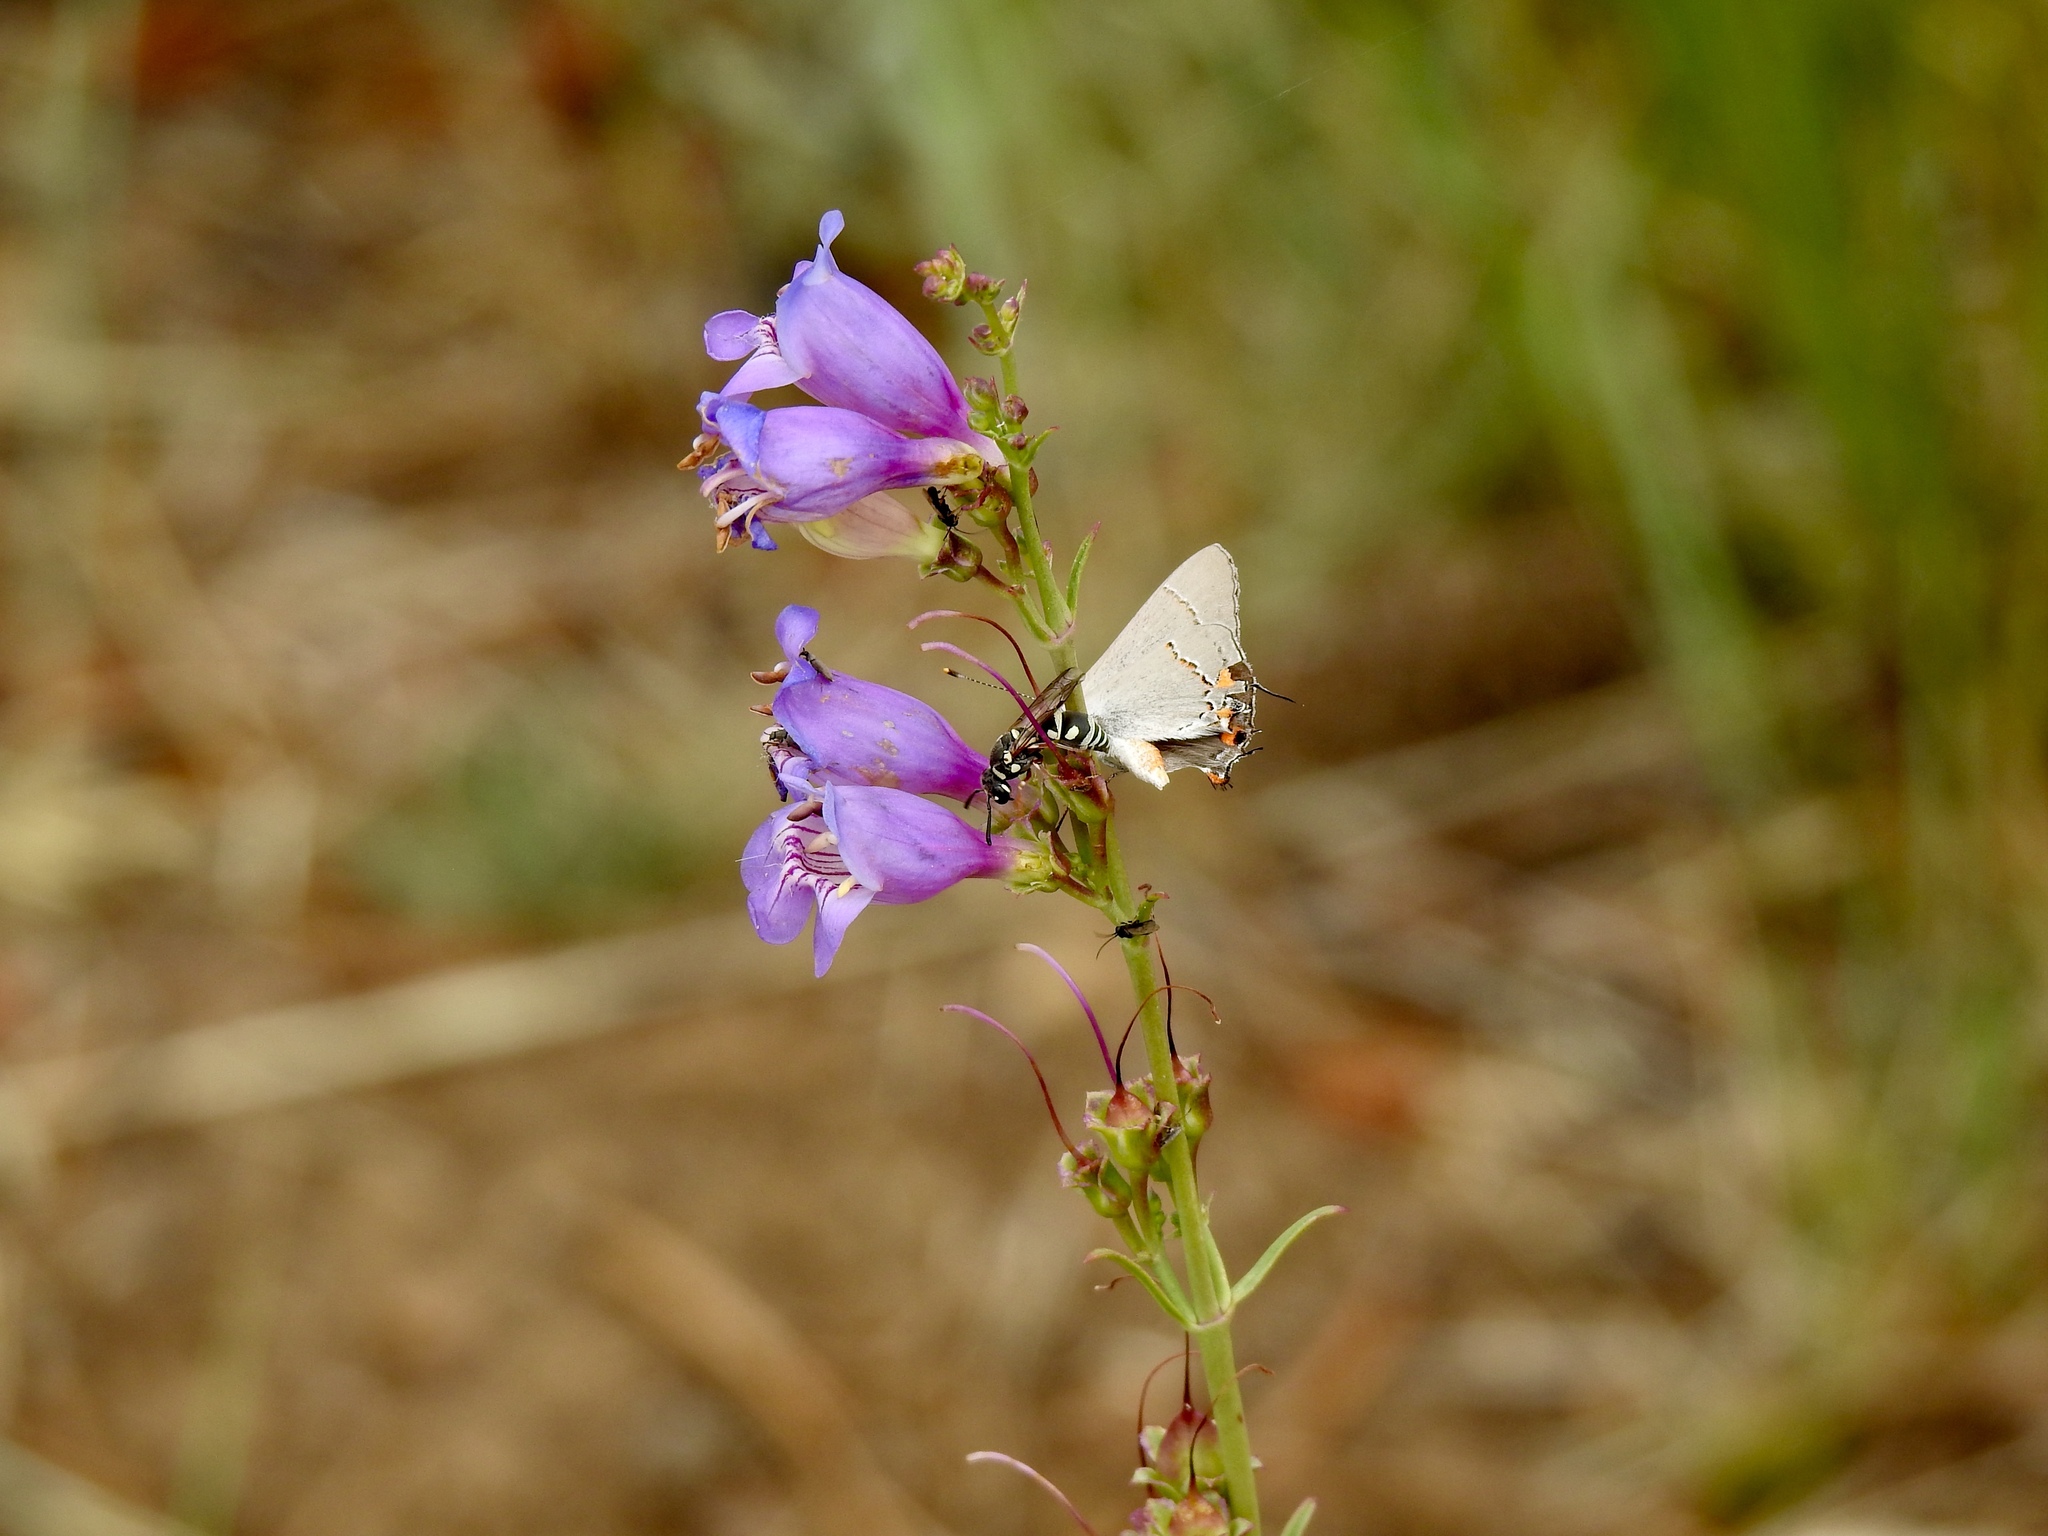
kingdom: Animalia
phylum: Arthropoda
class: Insecta
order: Lepidoptera
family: Lycaenidae
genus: Strymon
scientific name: Strymon melinus
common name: Gray hairstreak
